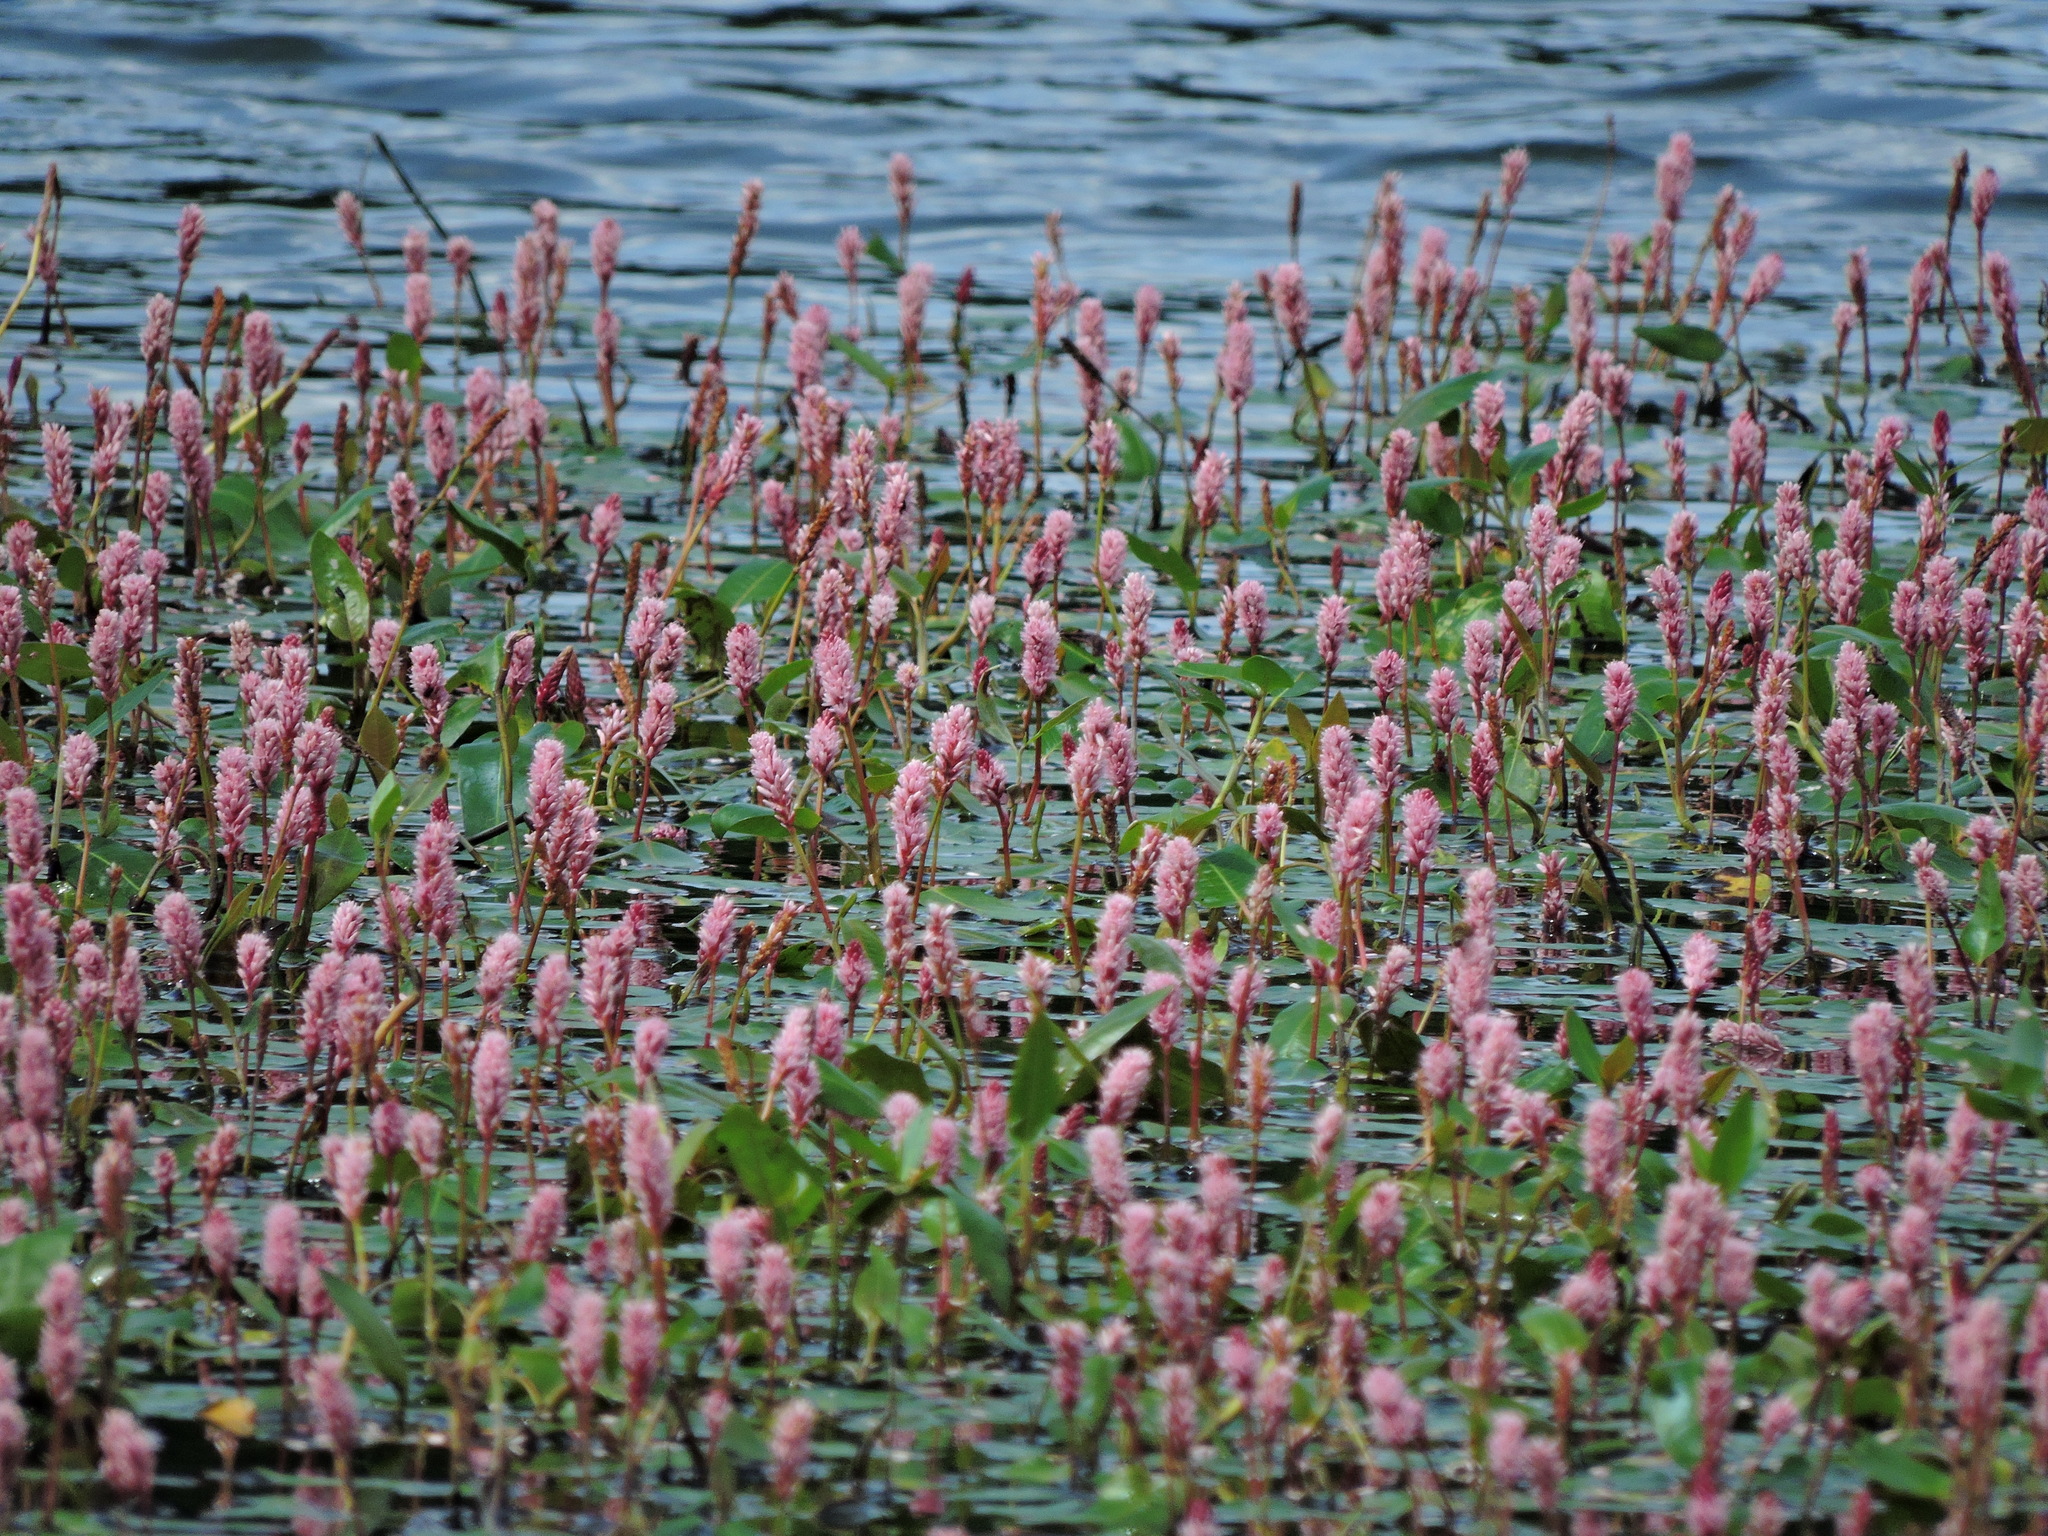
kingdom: Plantae
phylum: Tracheophyta
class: Magnoliopsida
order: Caryophyllales
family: Polygonaceae
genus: Persicaria
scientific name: Persicaria amphibia
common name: Amphibious bistort
